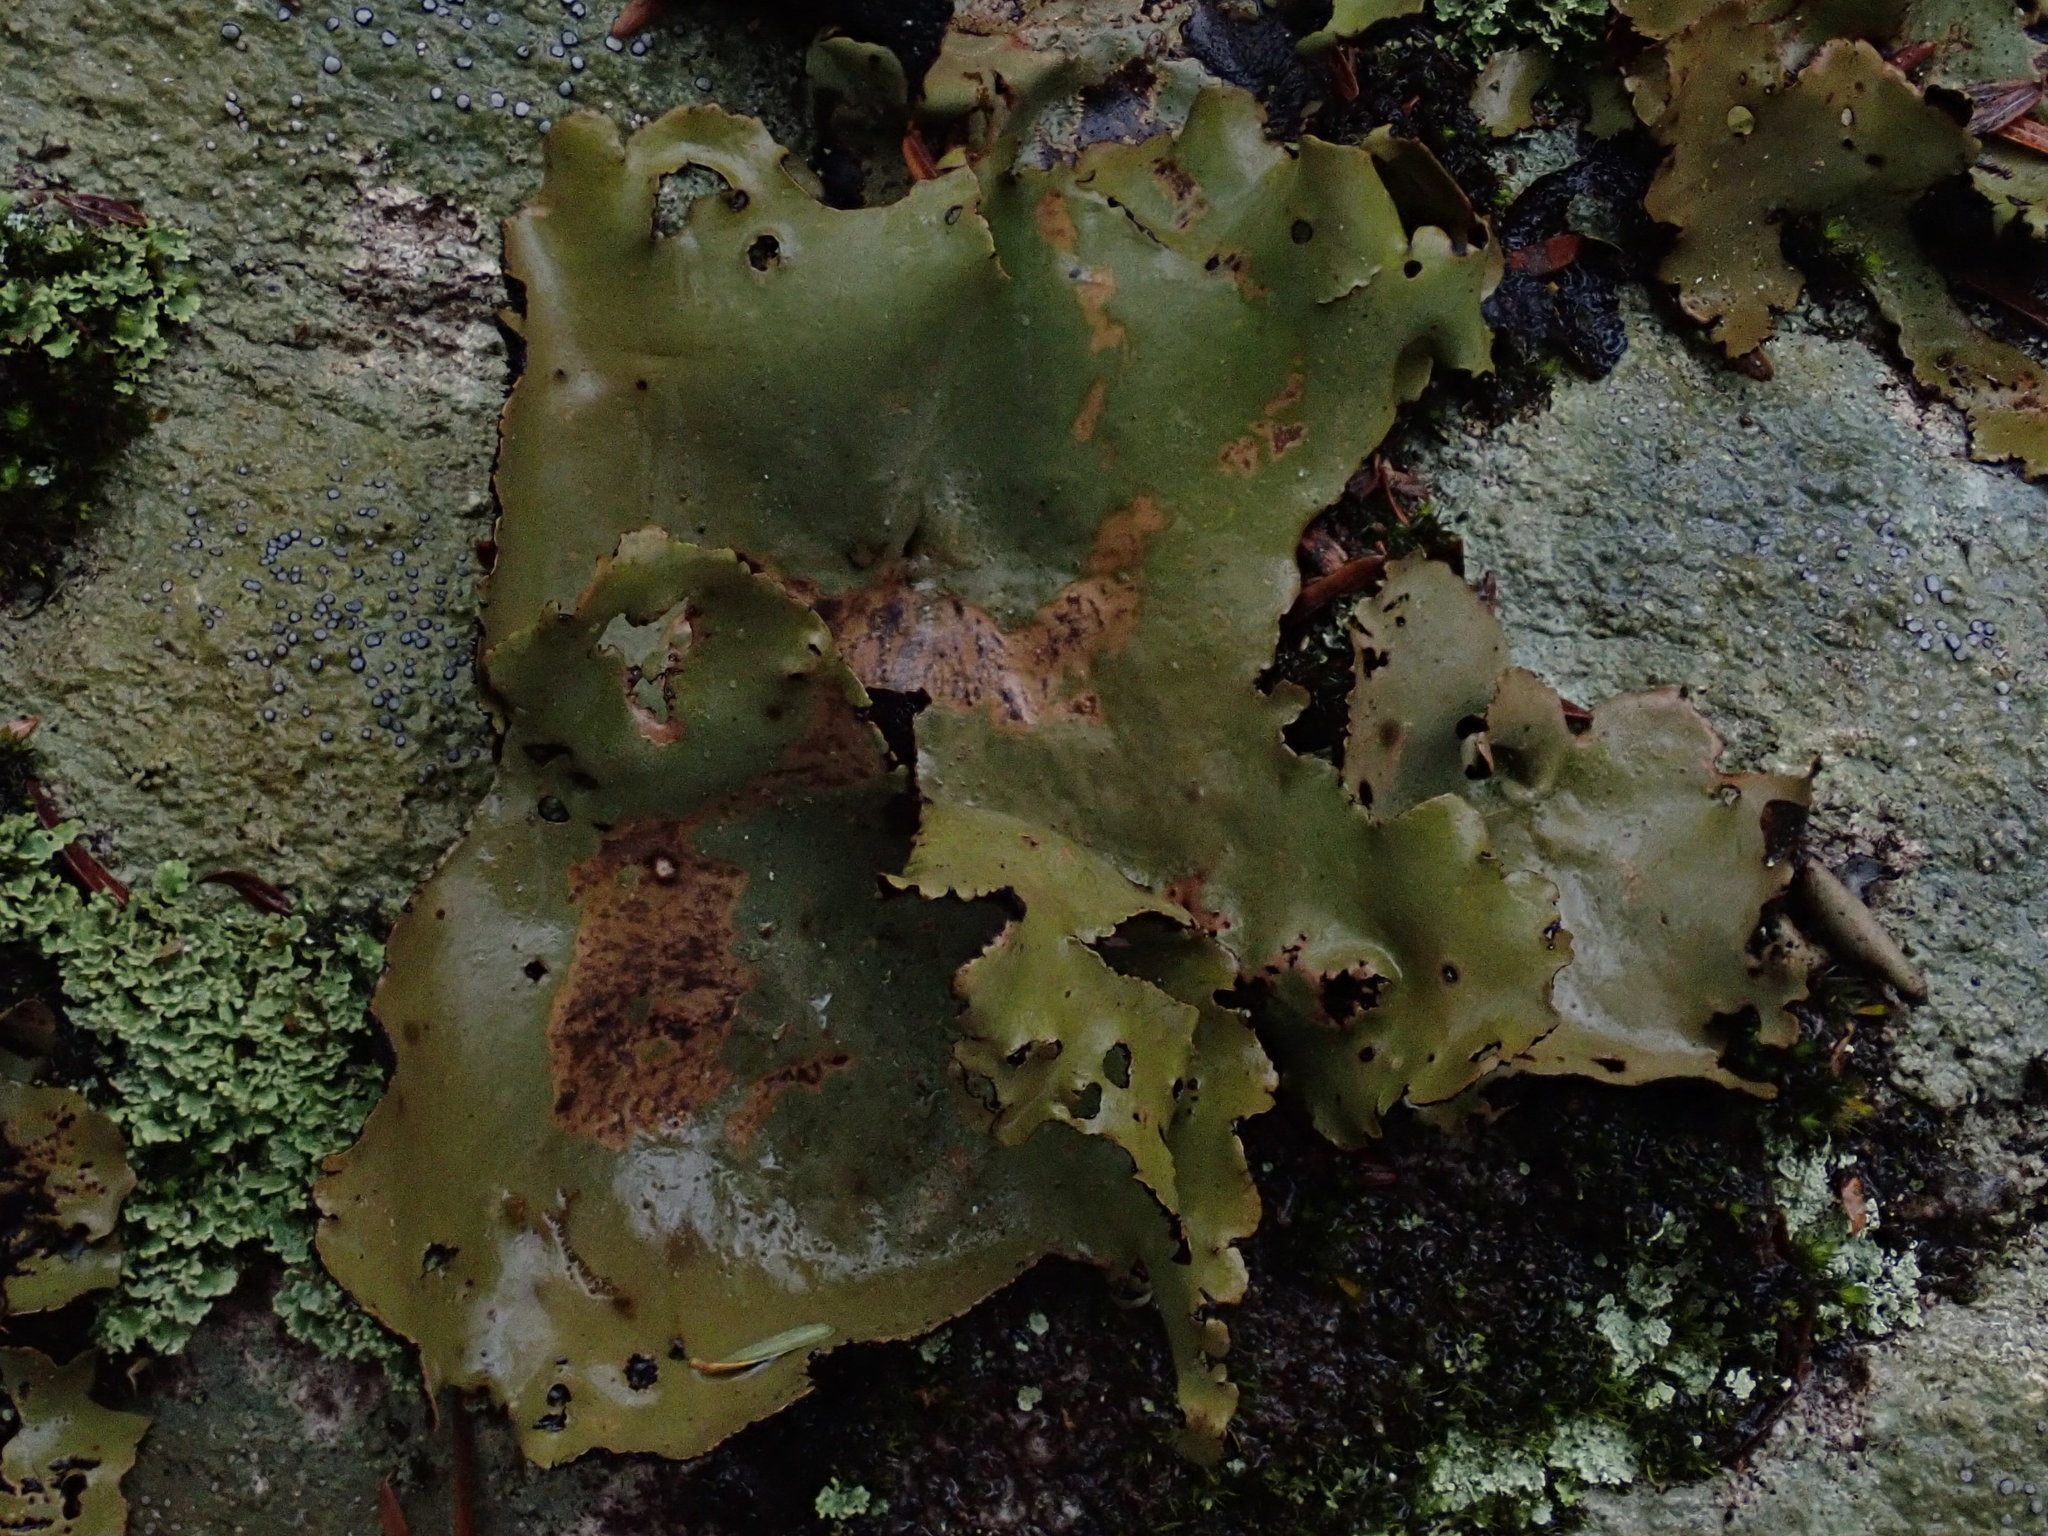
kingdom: Fungi
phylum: Ascomycota
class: Lecanoromycetes
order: Umbilicariales
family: Umbilicariaceae
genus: Umbilicaria
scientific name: Umbilicaria mammulata
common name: Smooth rock tripe
